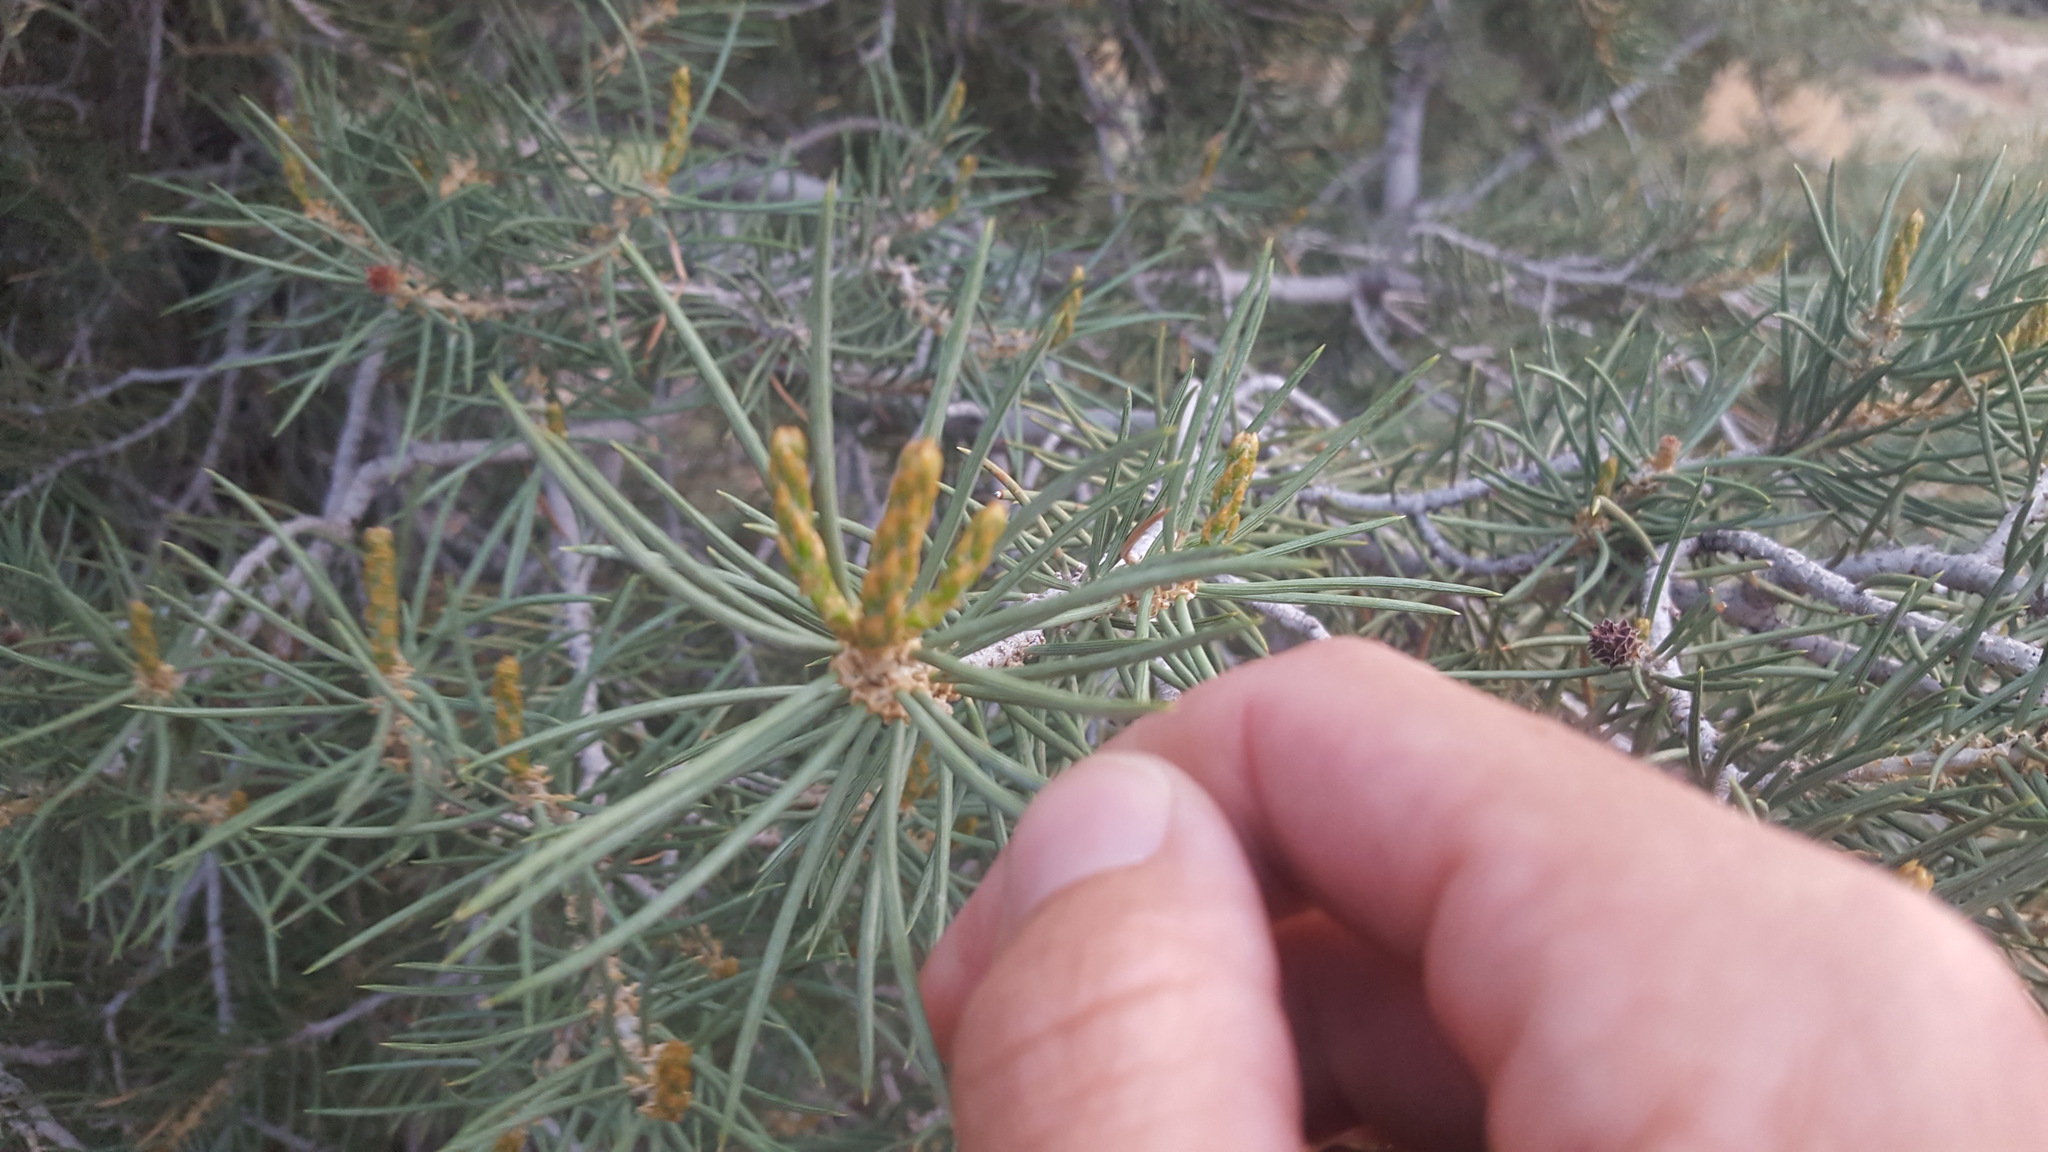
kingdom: Plantae
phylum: Tracheophyta
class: Pinopsida
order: Pinales
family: Pinaceae
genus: Pinus
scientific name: Pinus monophylla
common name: One-leaved nut pine
